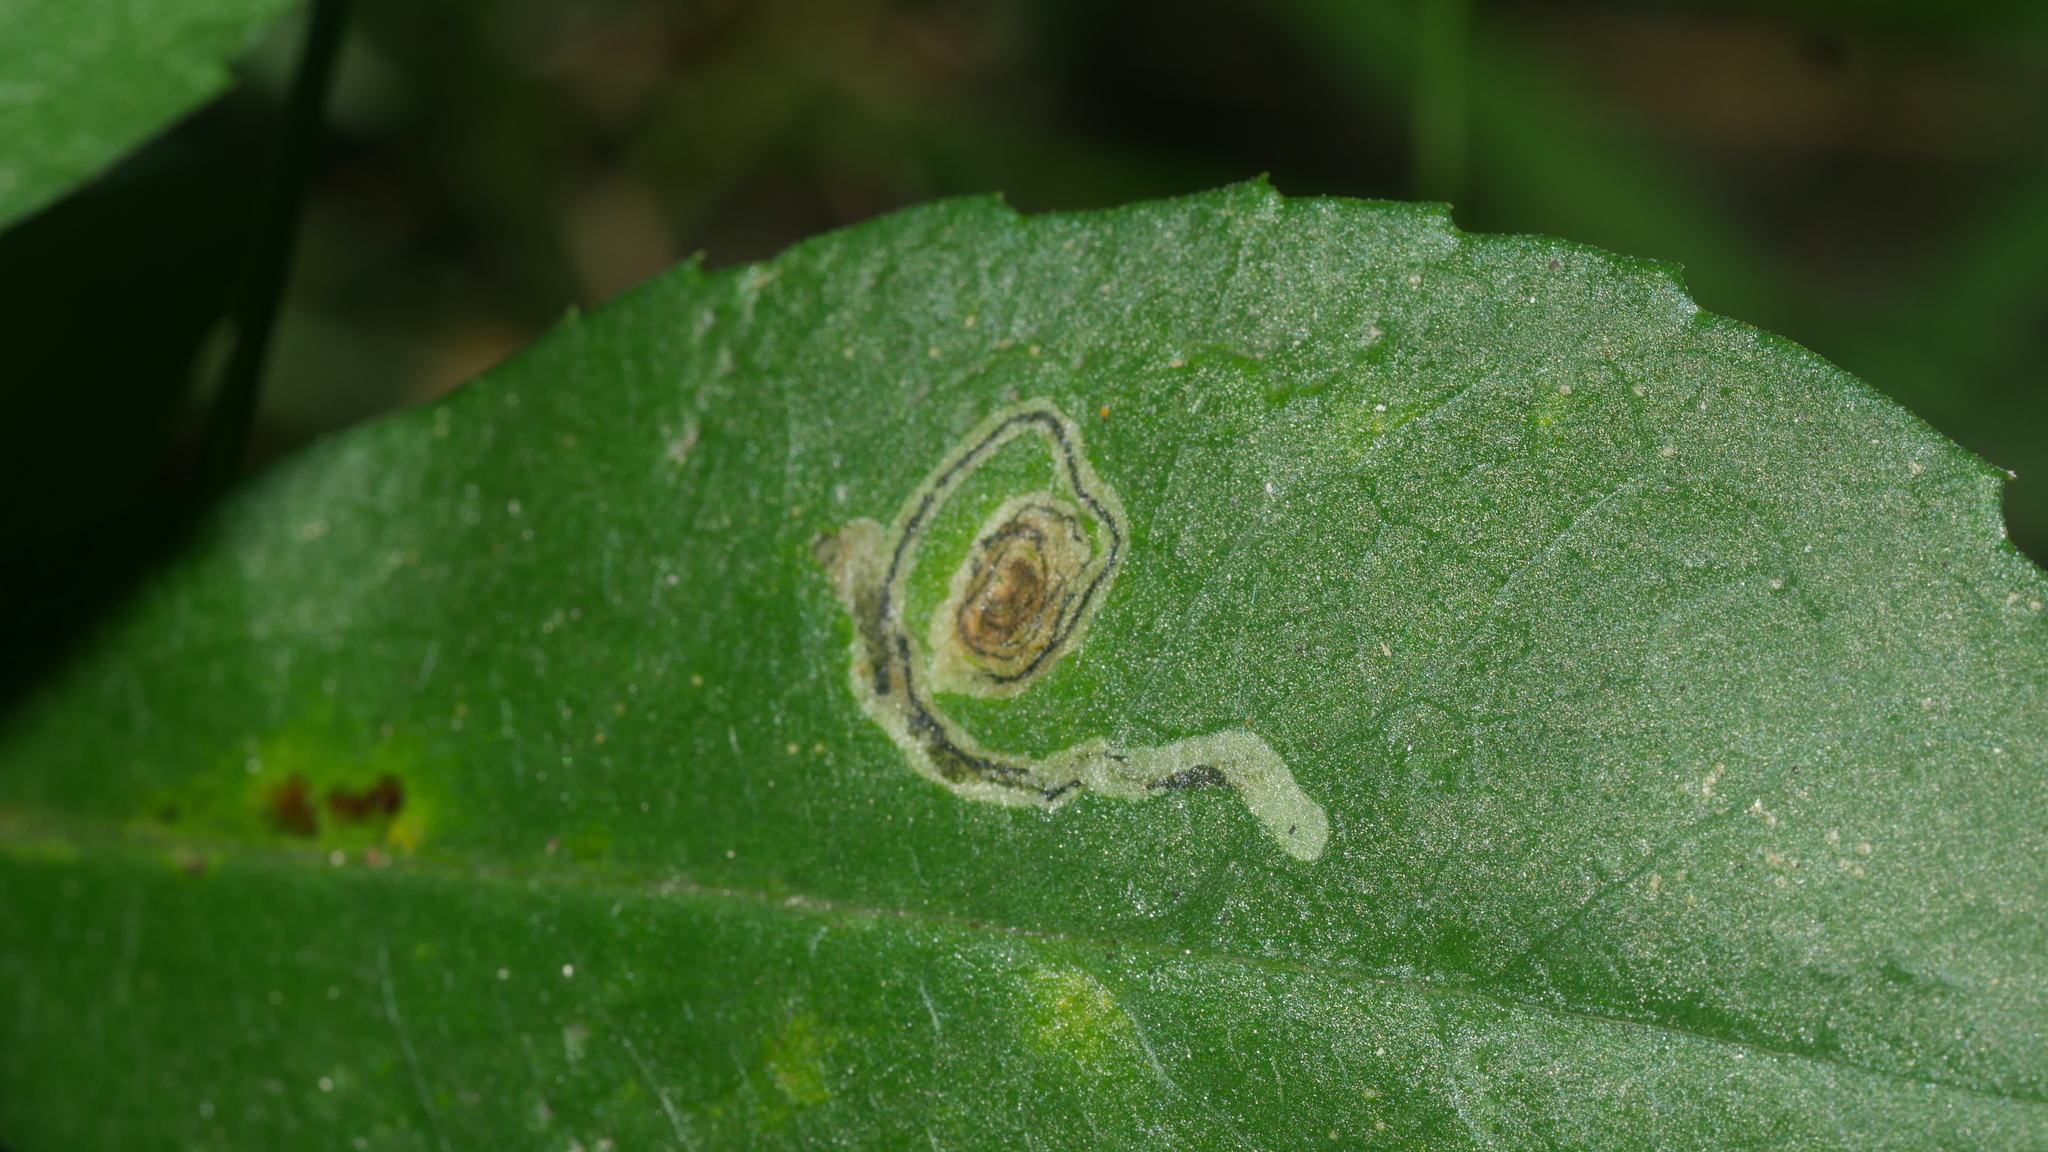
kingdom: Animalia
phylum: Arthropoda
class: Insecta
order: Diptera
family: Agromyzidae
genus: Liriomyza
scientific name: Liriomyza eupatorii
